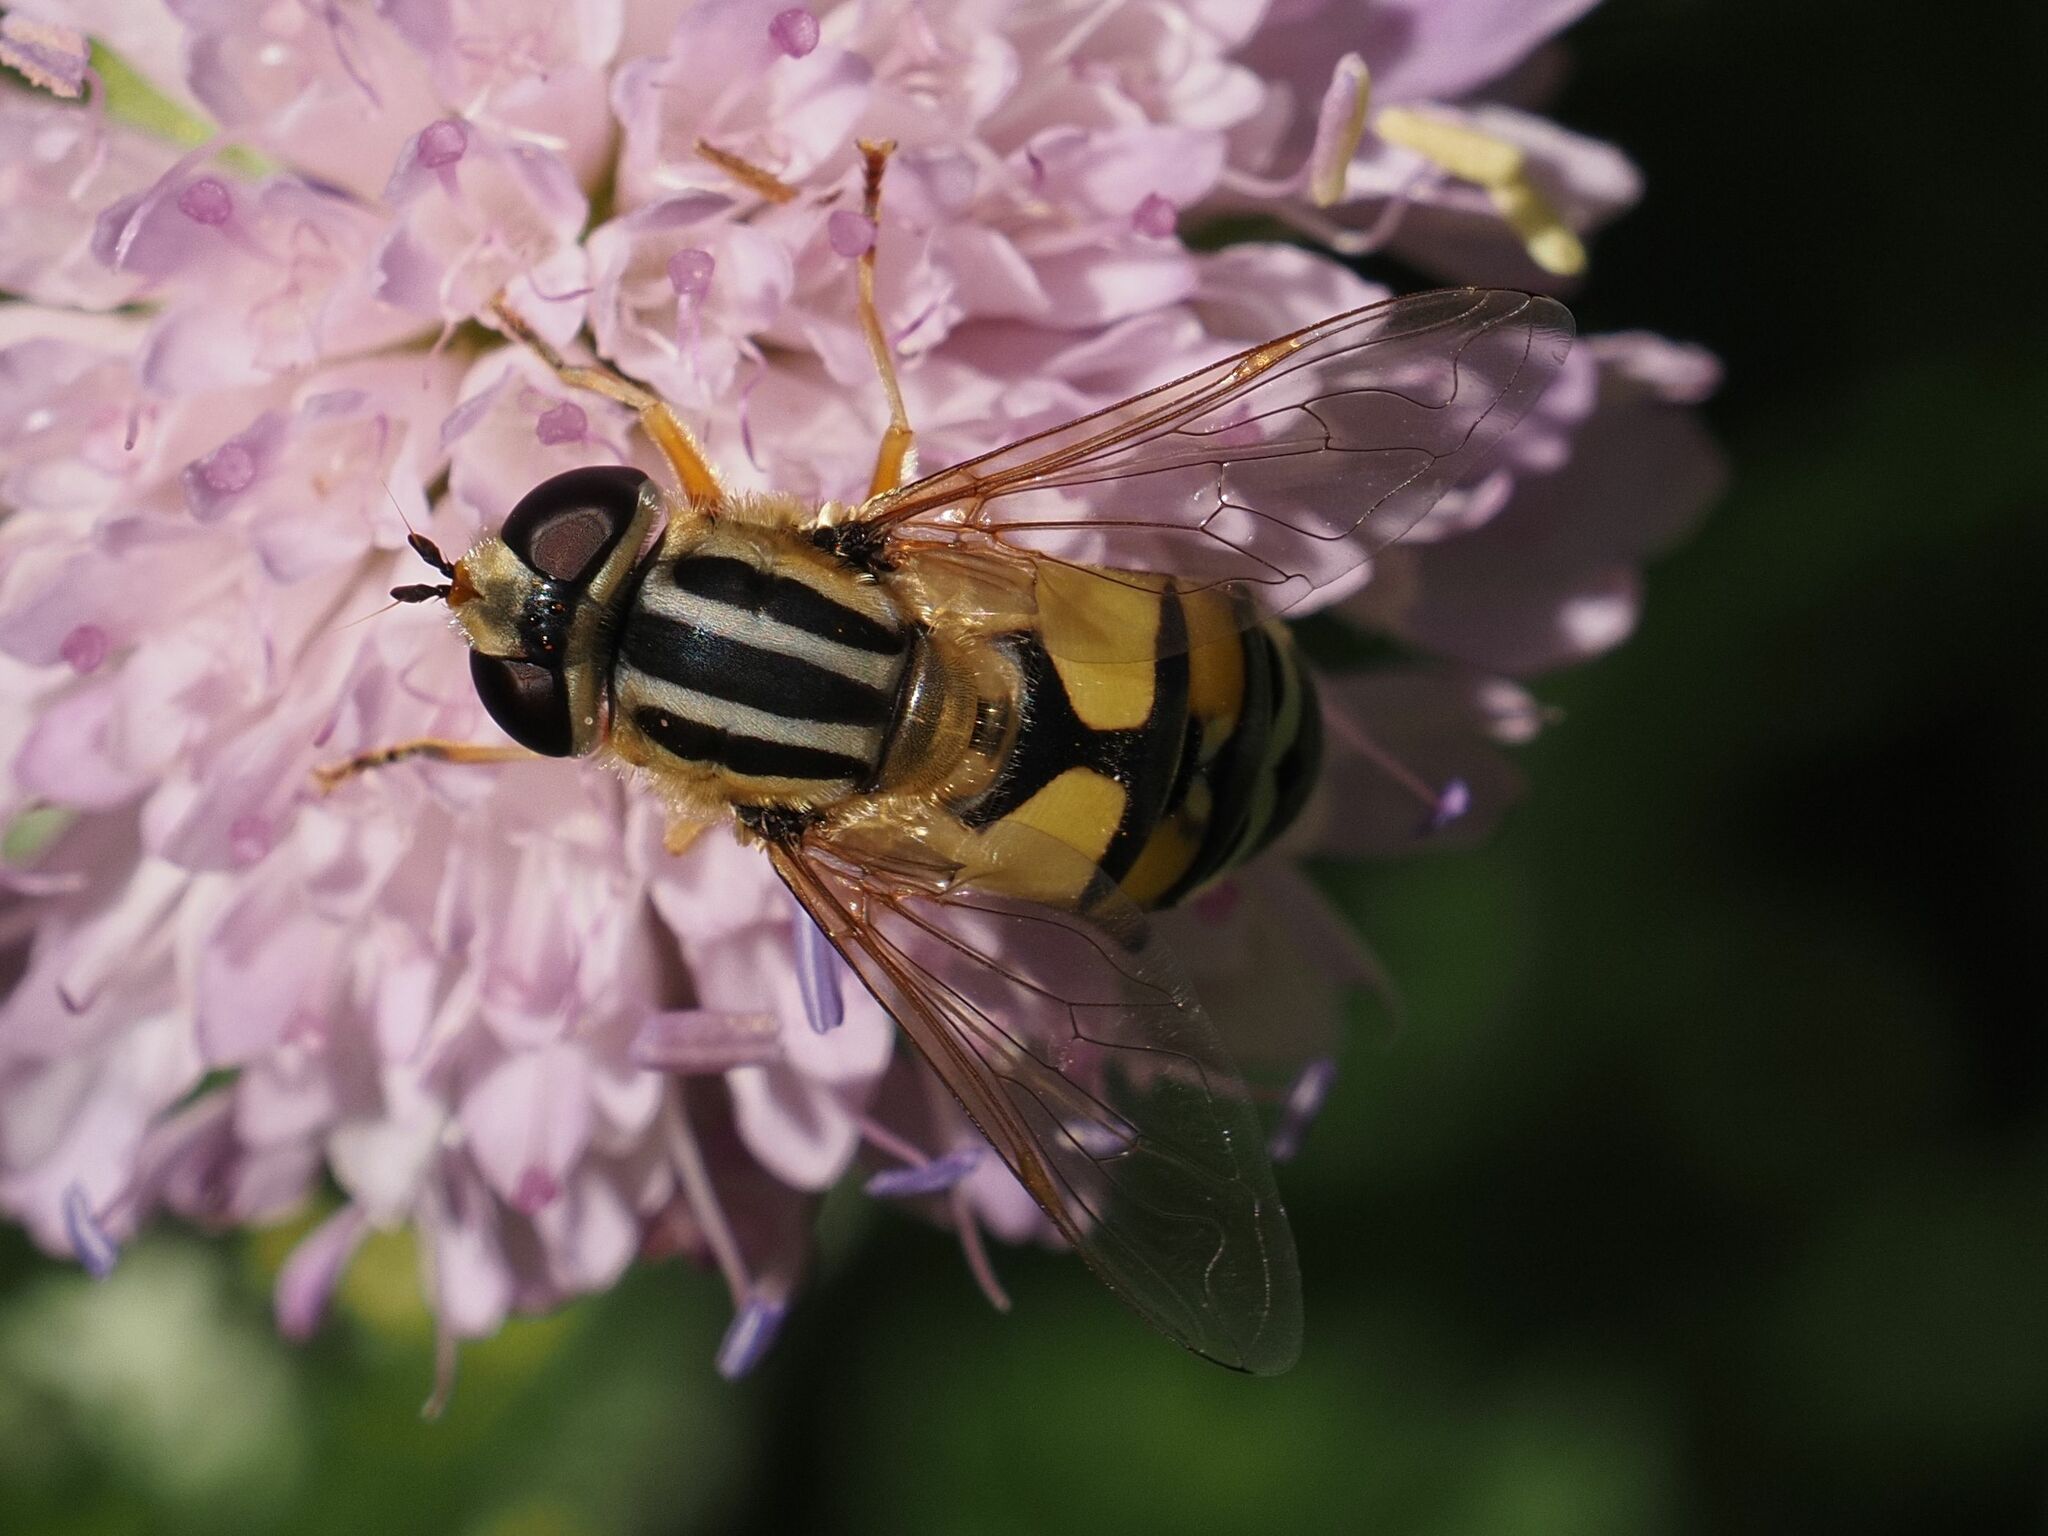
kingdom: Animalia
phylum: Arthropoda
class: Insecta
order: Diptera
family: Syrphidae
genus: Helophilus
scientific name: Helophilus trivittatus
